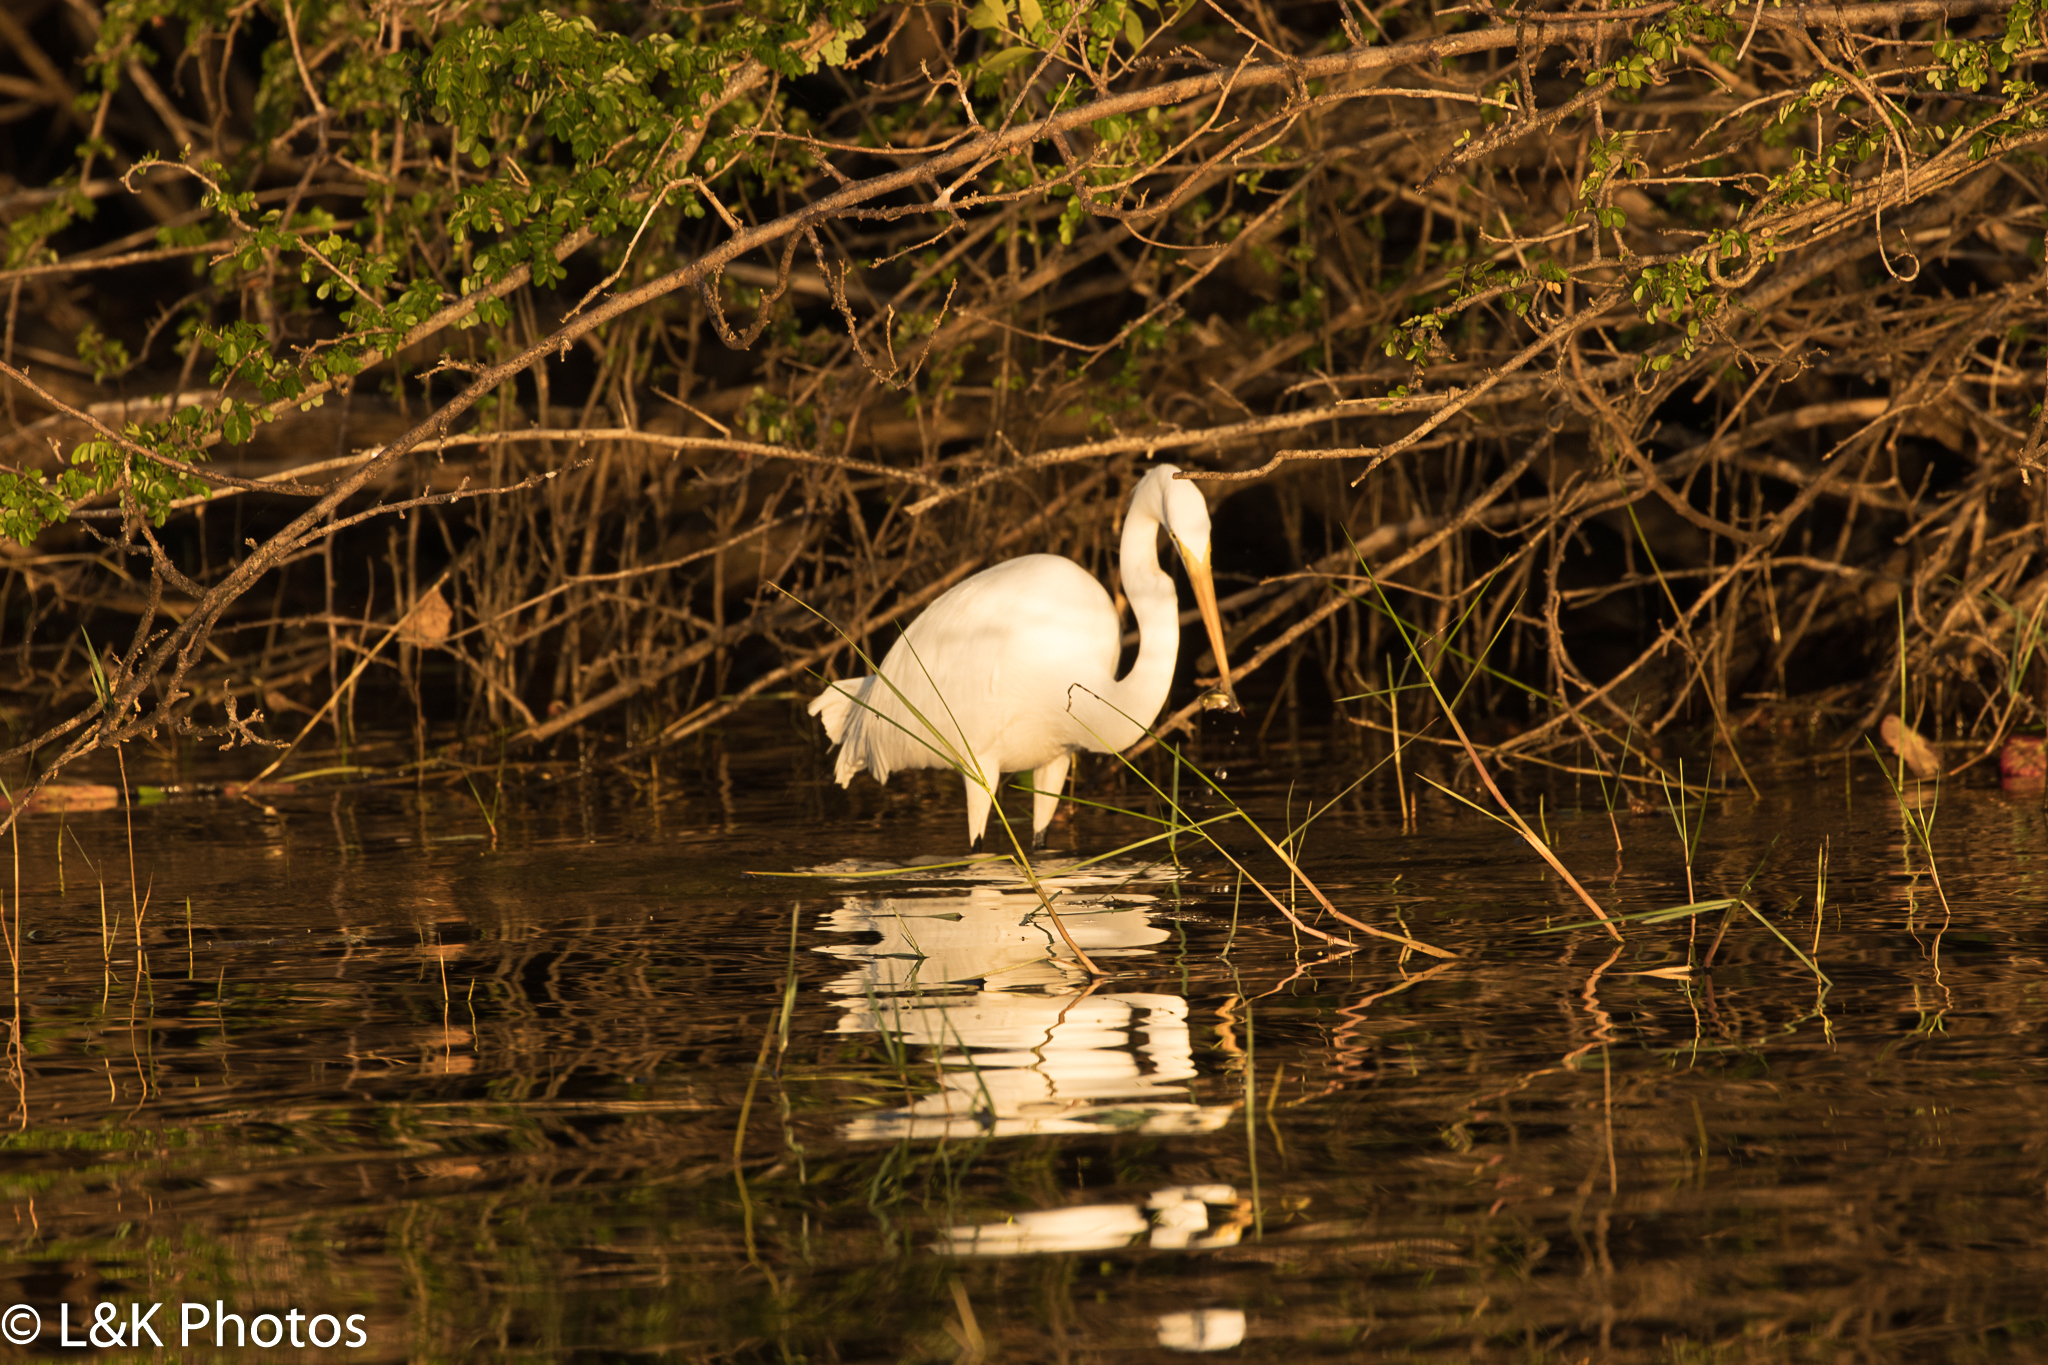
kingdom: Animalia
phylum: Chordata
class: Aves
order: Pelecaniformes
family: Ardeidae
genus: Ardea
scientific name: Ardea alba
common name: Great egret
